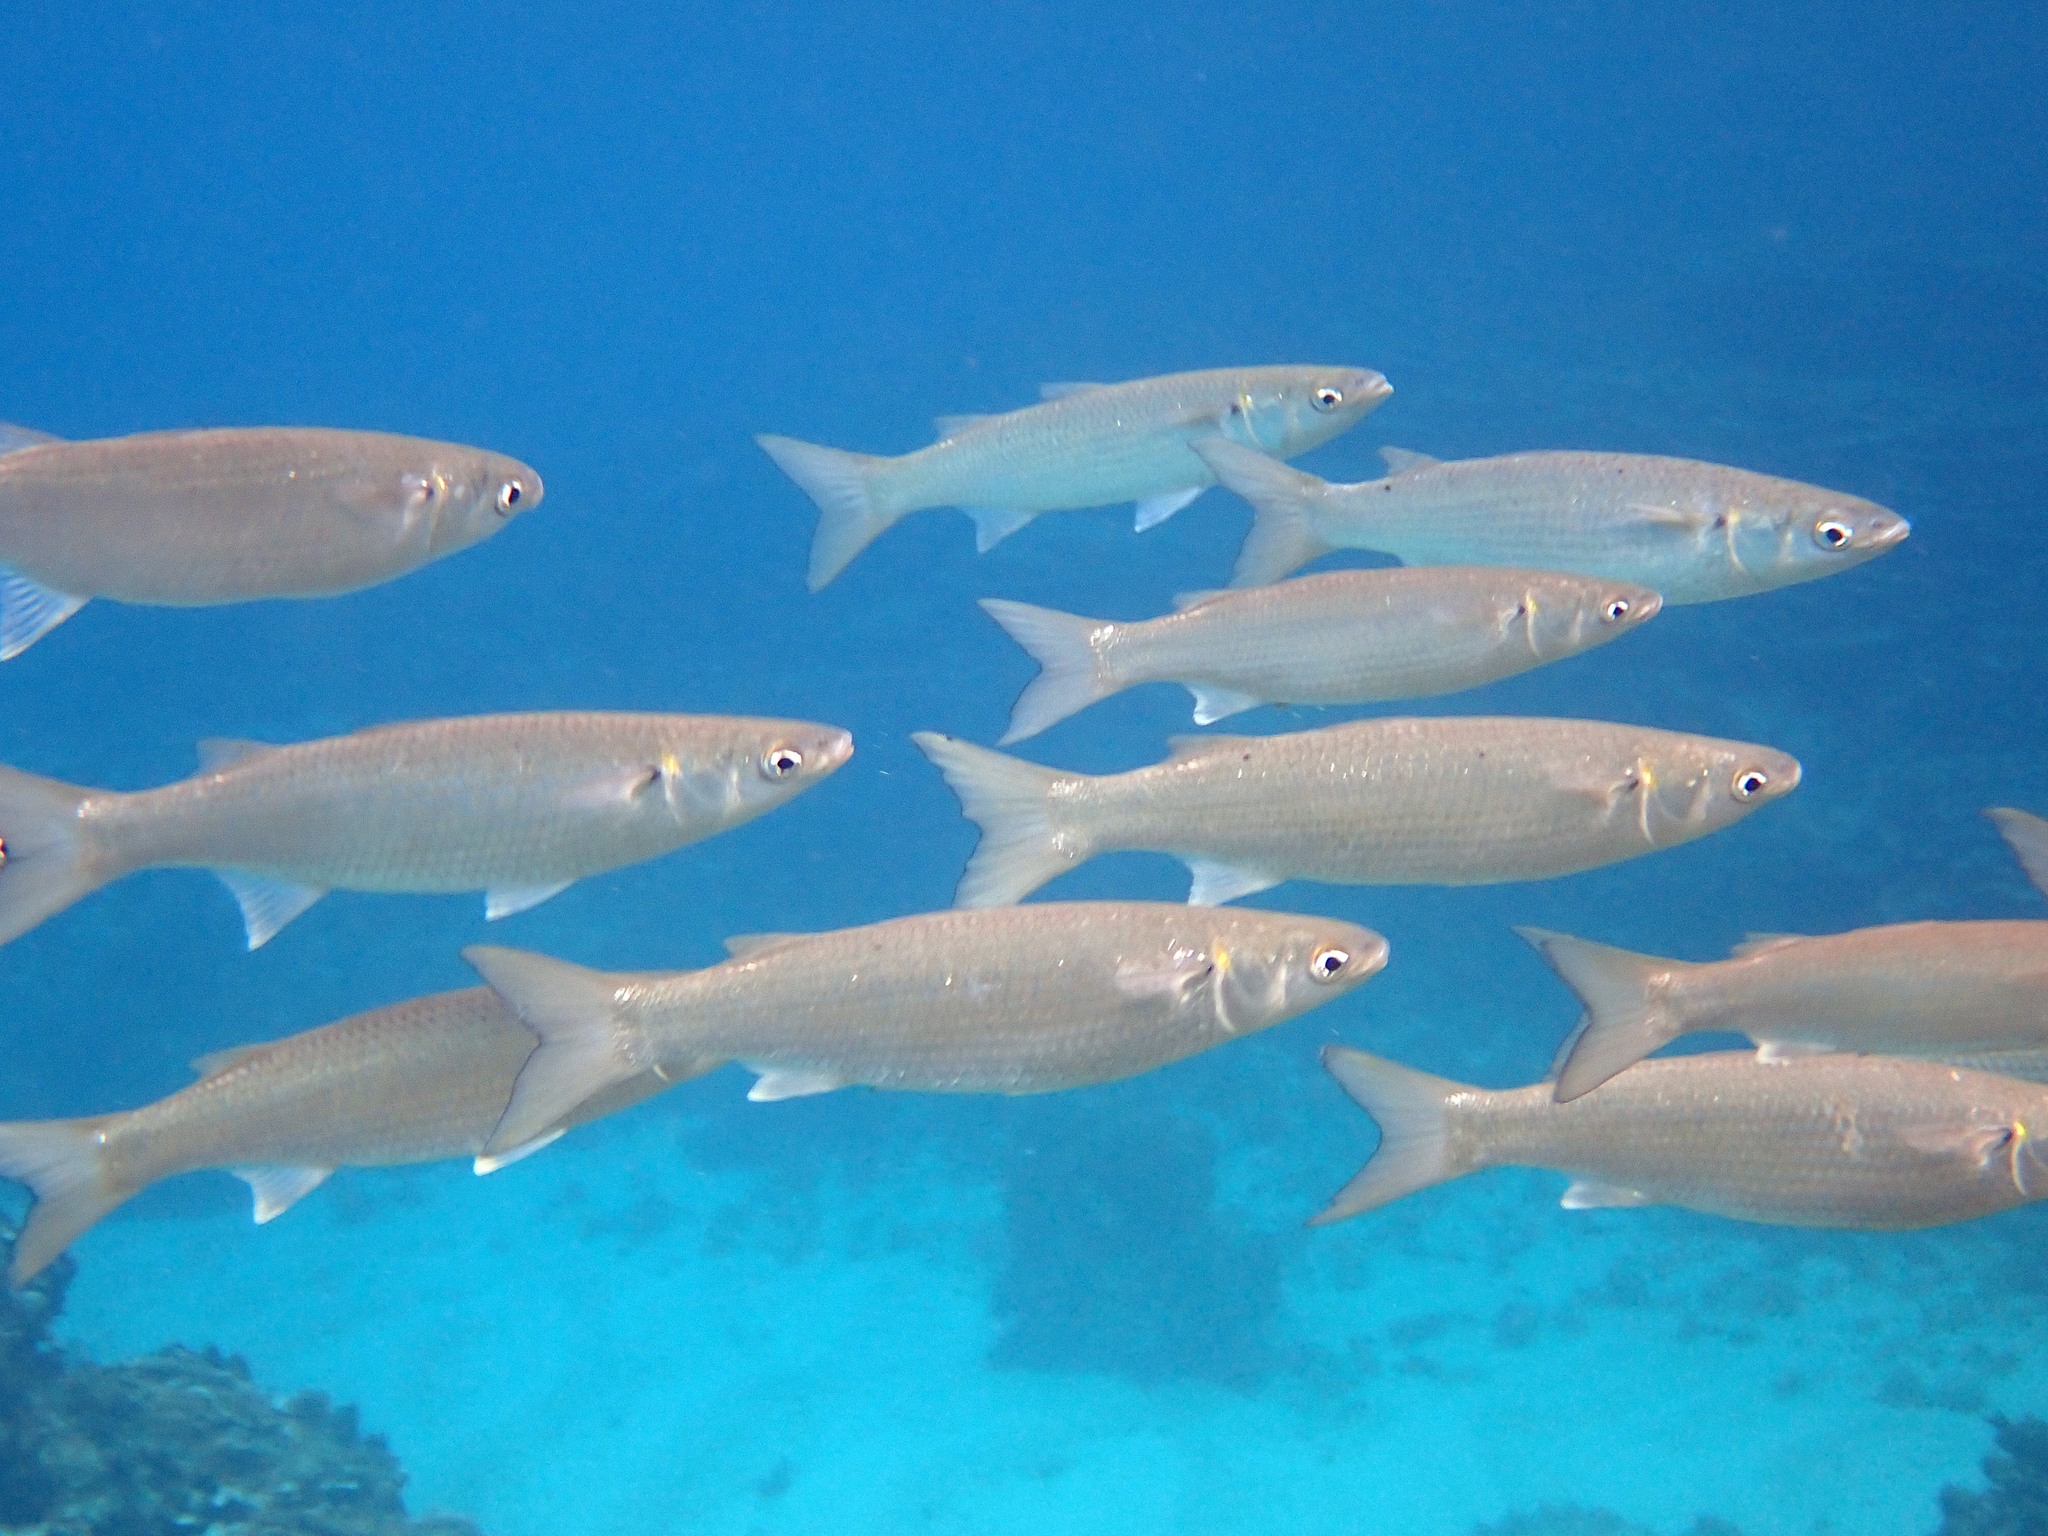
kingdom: Animalia
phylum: Chordata
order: Mugiliformes
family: Mugilidae
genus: Myxus
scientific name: Myxus elongatus
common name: Sand grey mullet
